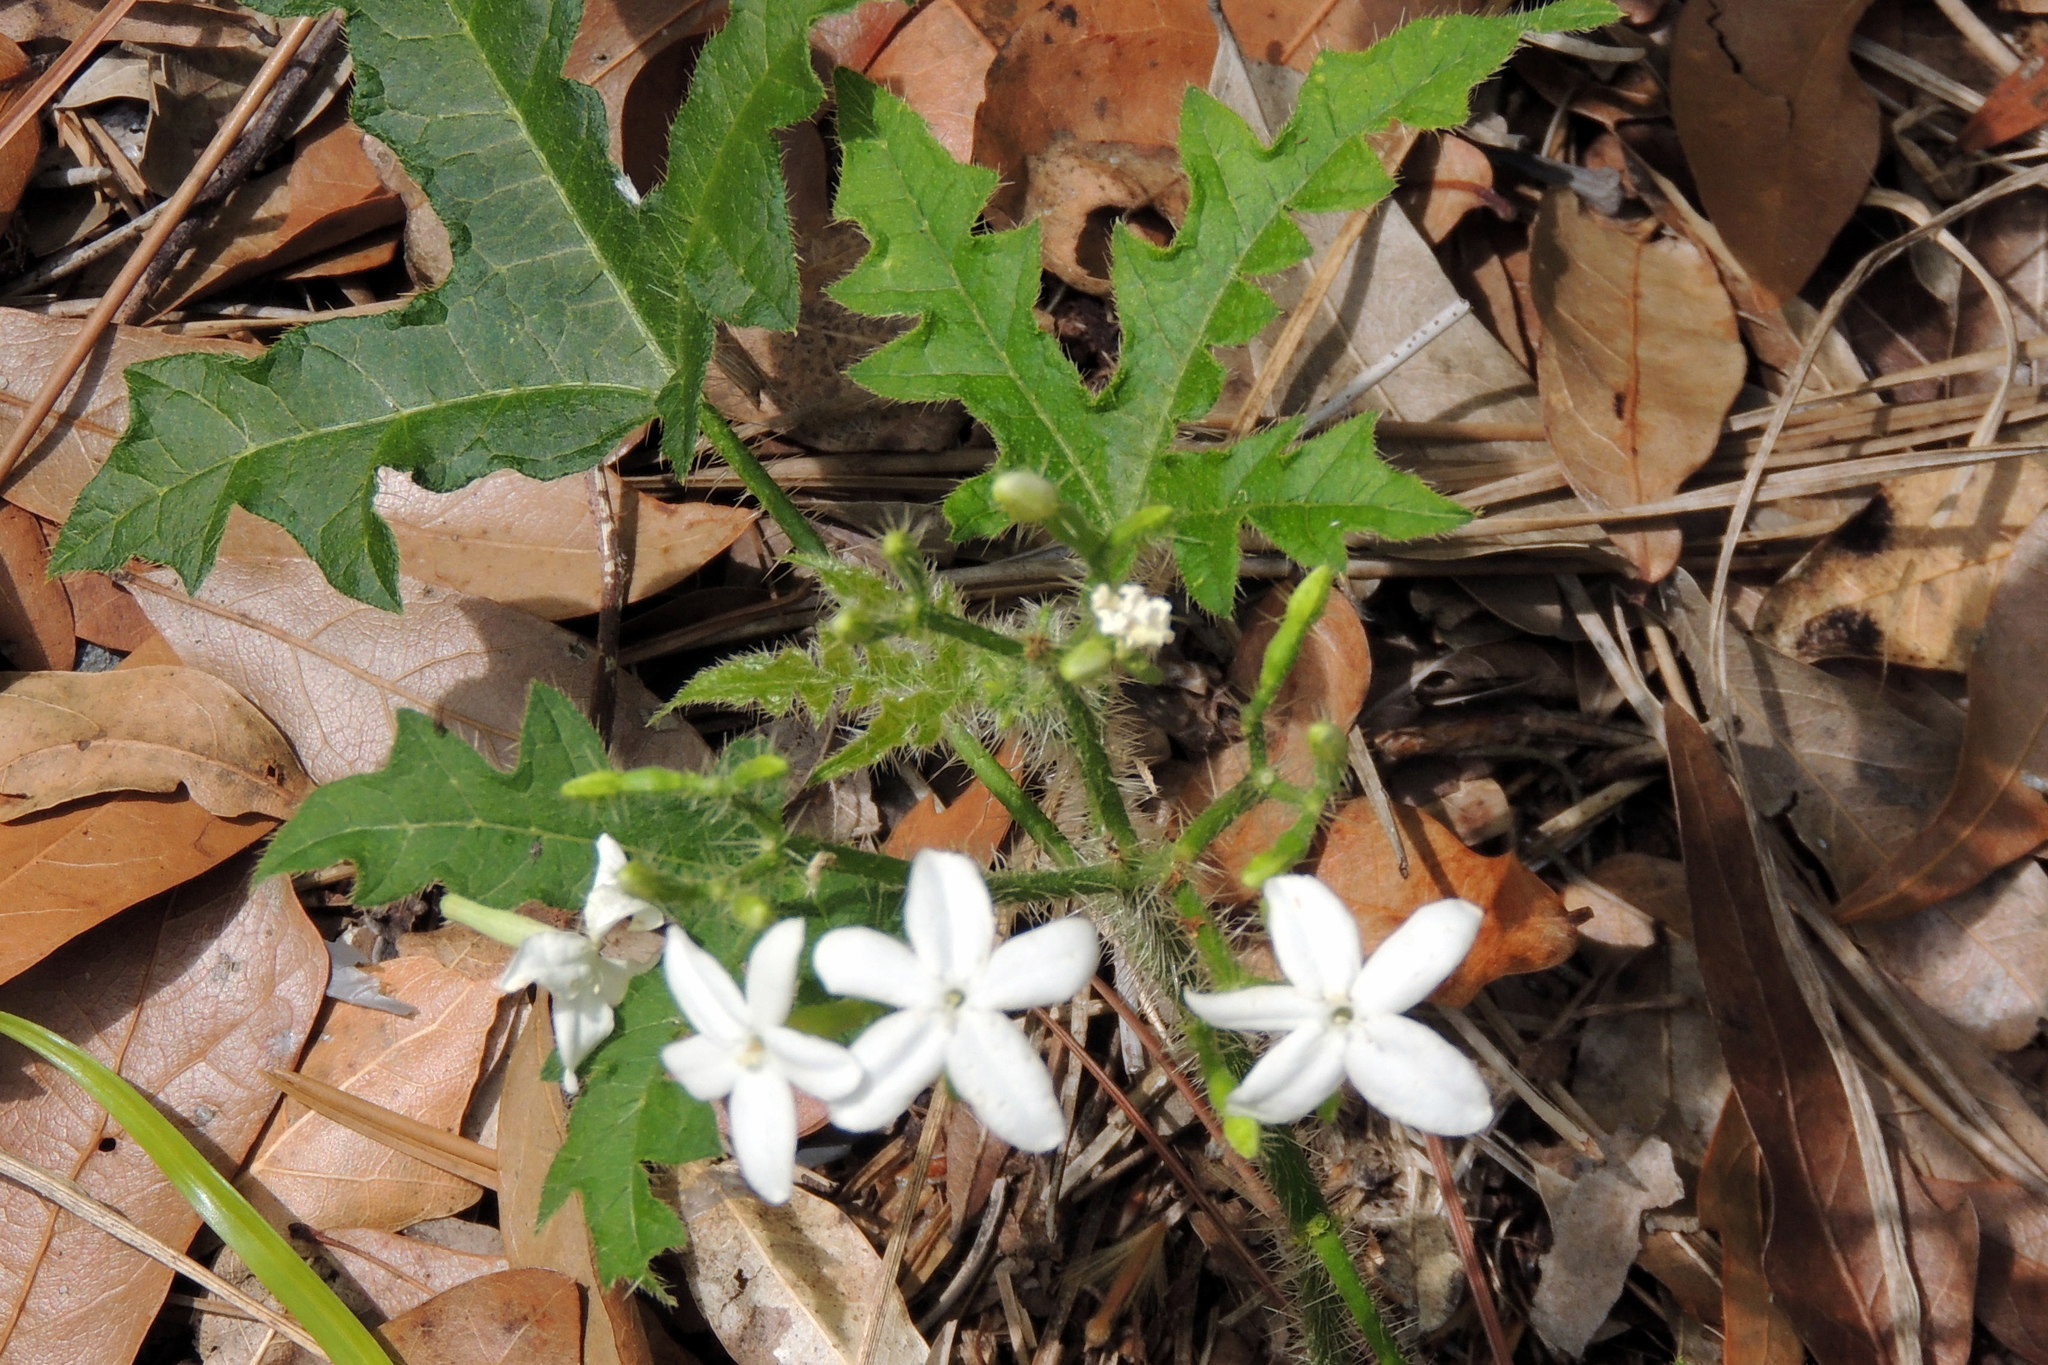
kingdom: Plantae
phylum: Tracheophyta
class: Magnoliopsida
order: Malpighiales
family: Euphorbiaceae
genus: Cnidoscolus
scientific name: Cnidoscolus stimulosus
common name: Bull-nettle
